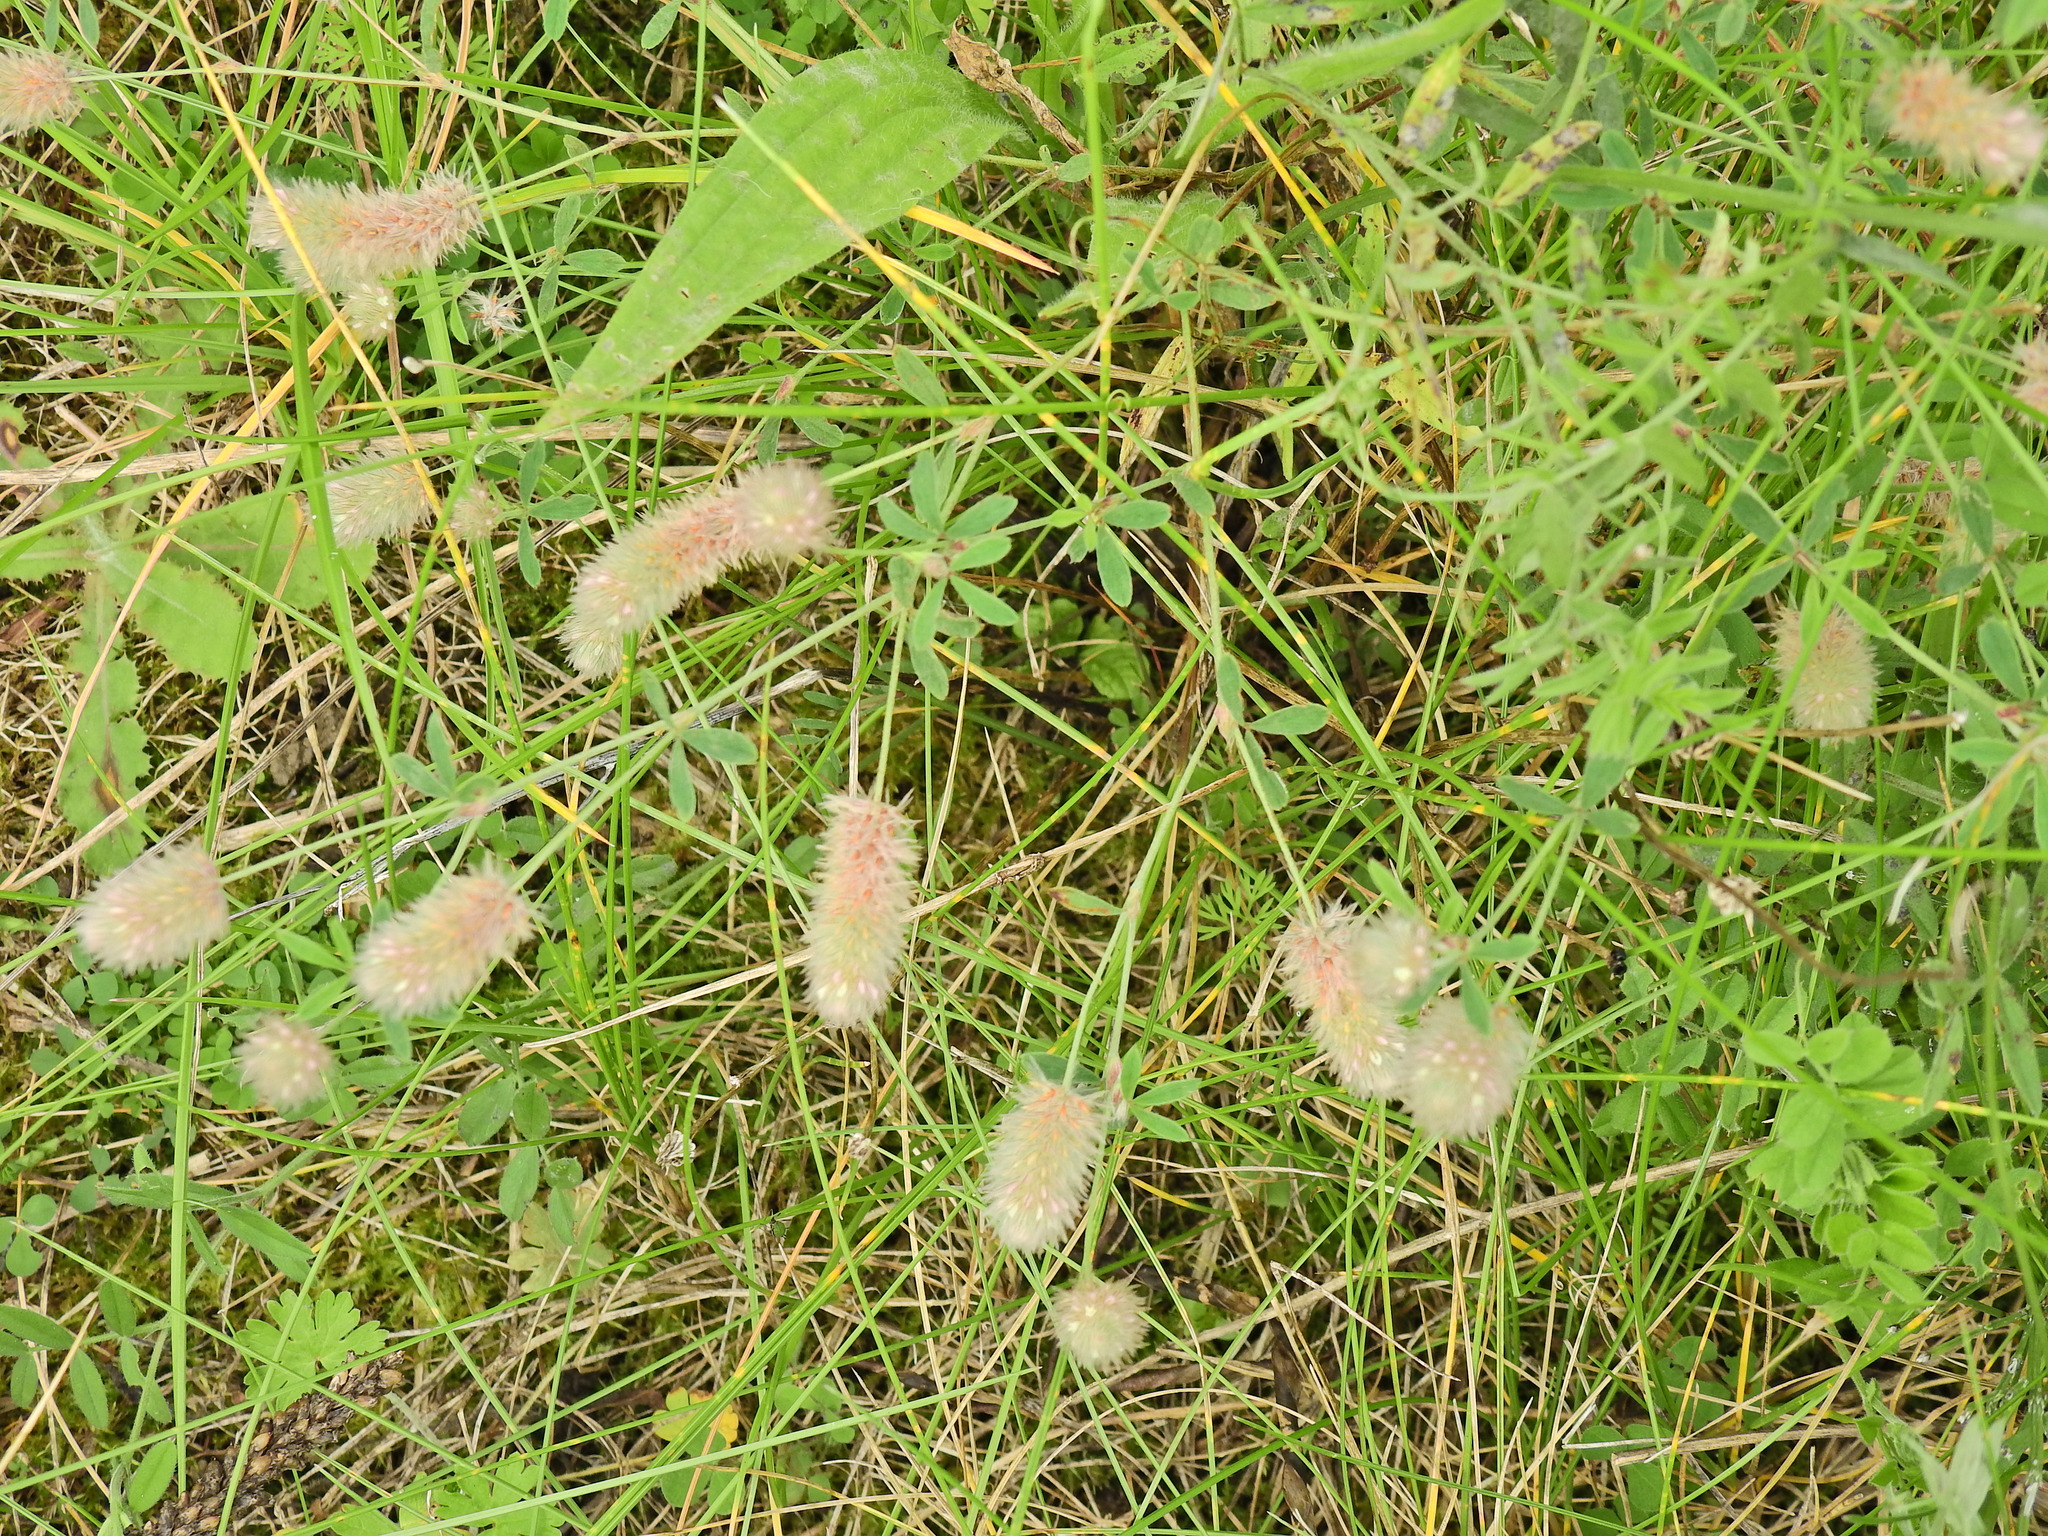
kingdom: Plantae
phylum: Tracheophyta
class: Magnoliopsida
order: Fabales
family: Fabaceae
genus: Trifolium
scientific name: Trifolium arvense
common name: Hare's-foot clover
